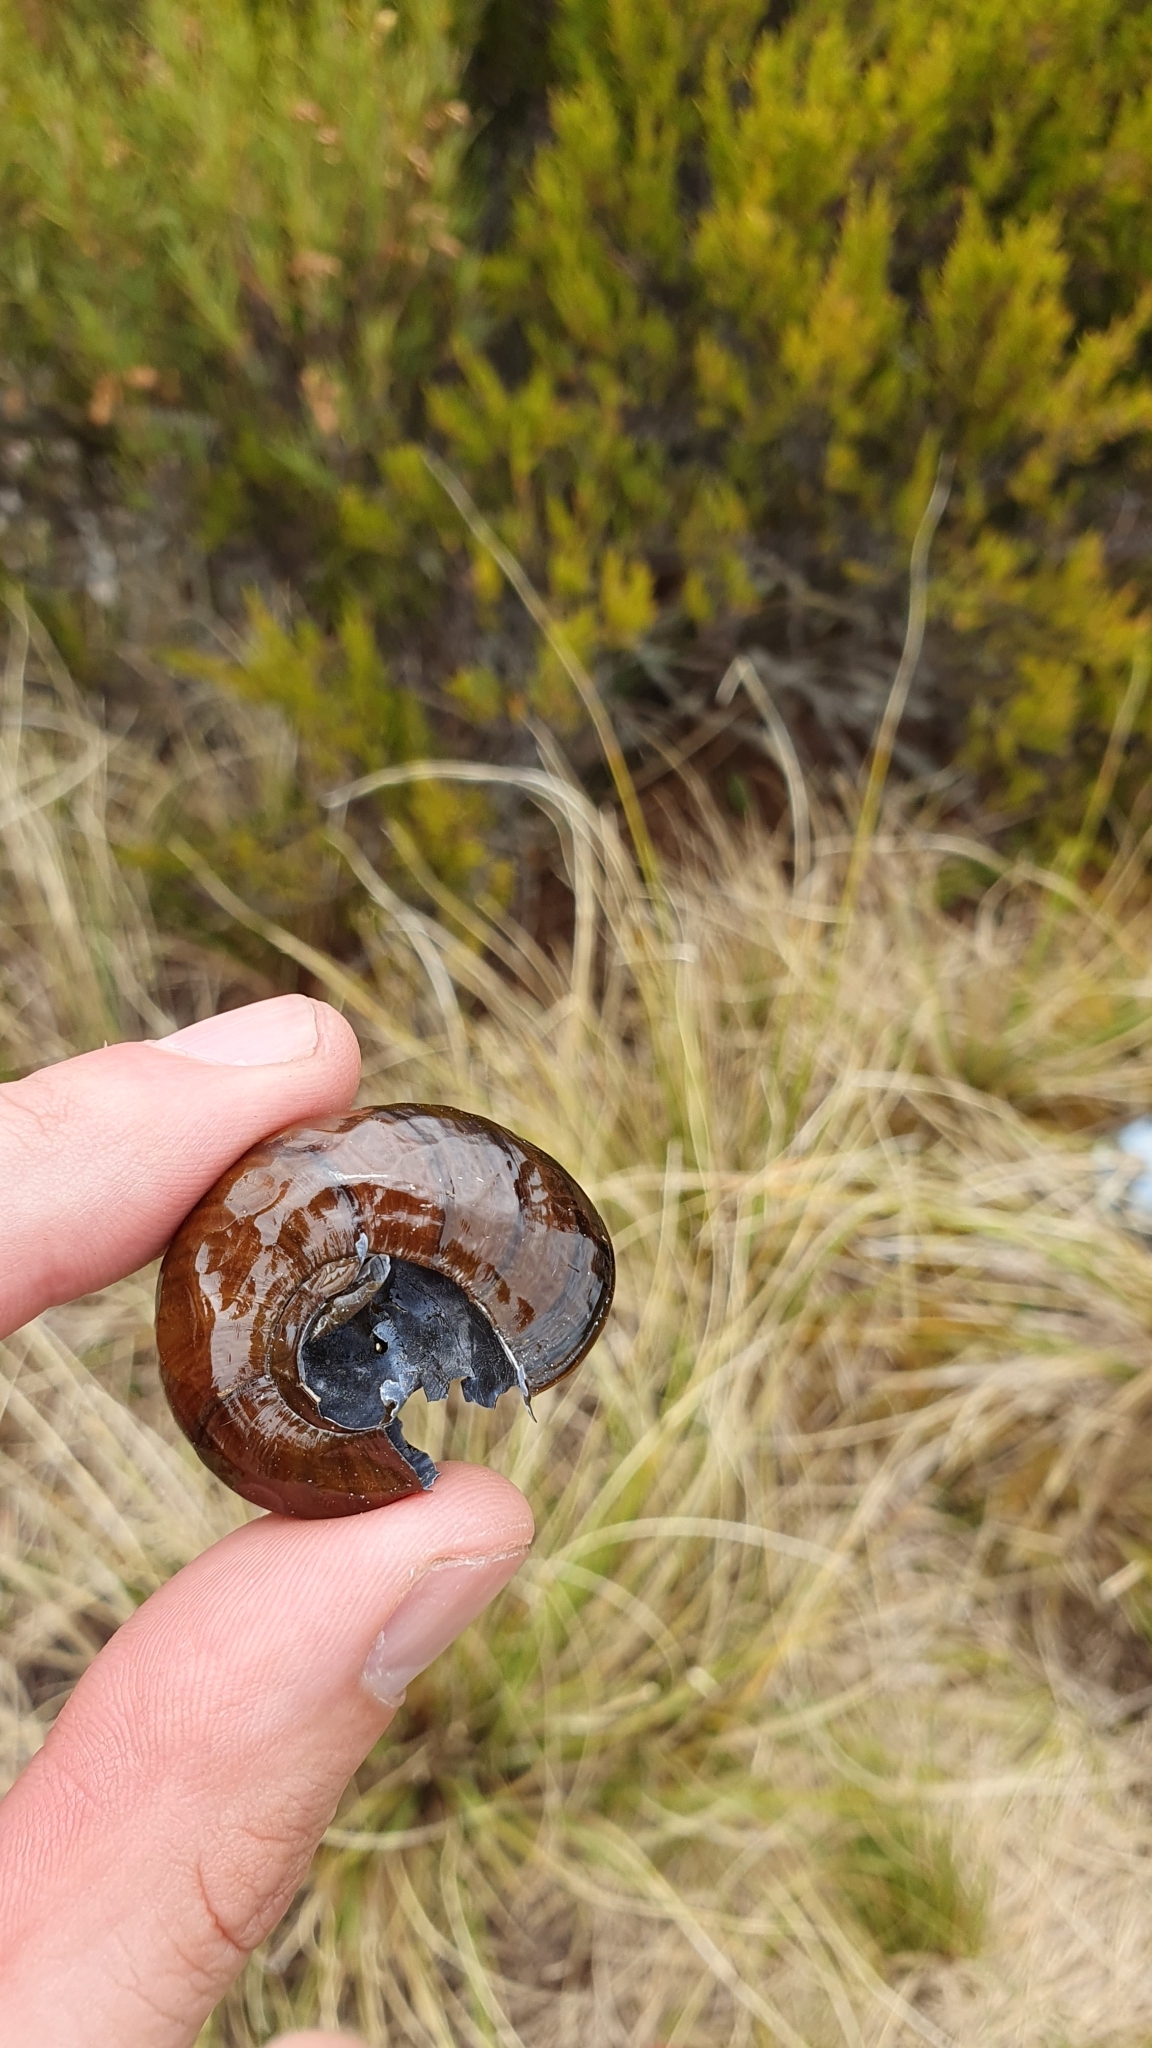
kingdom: Animalia
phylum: Mollusca
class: Gastropoda
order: Stylommatophora
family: Rhytididae
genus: Powelliphanta
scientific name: Powelliphanta fletcheri
